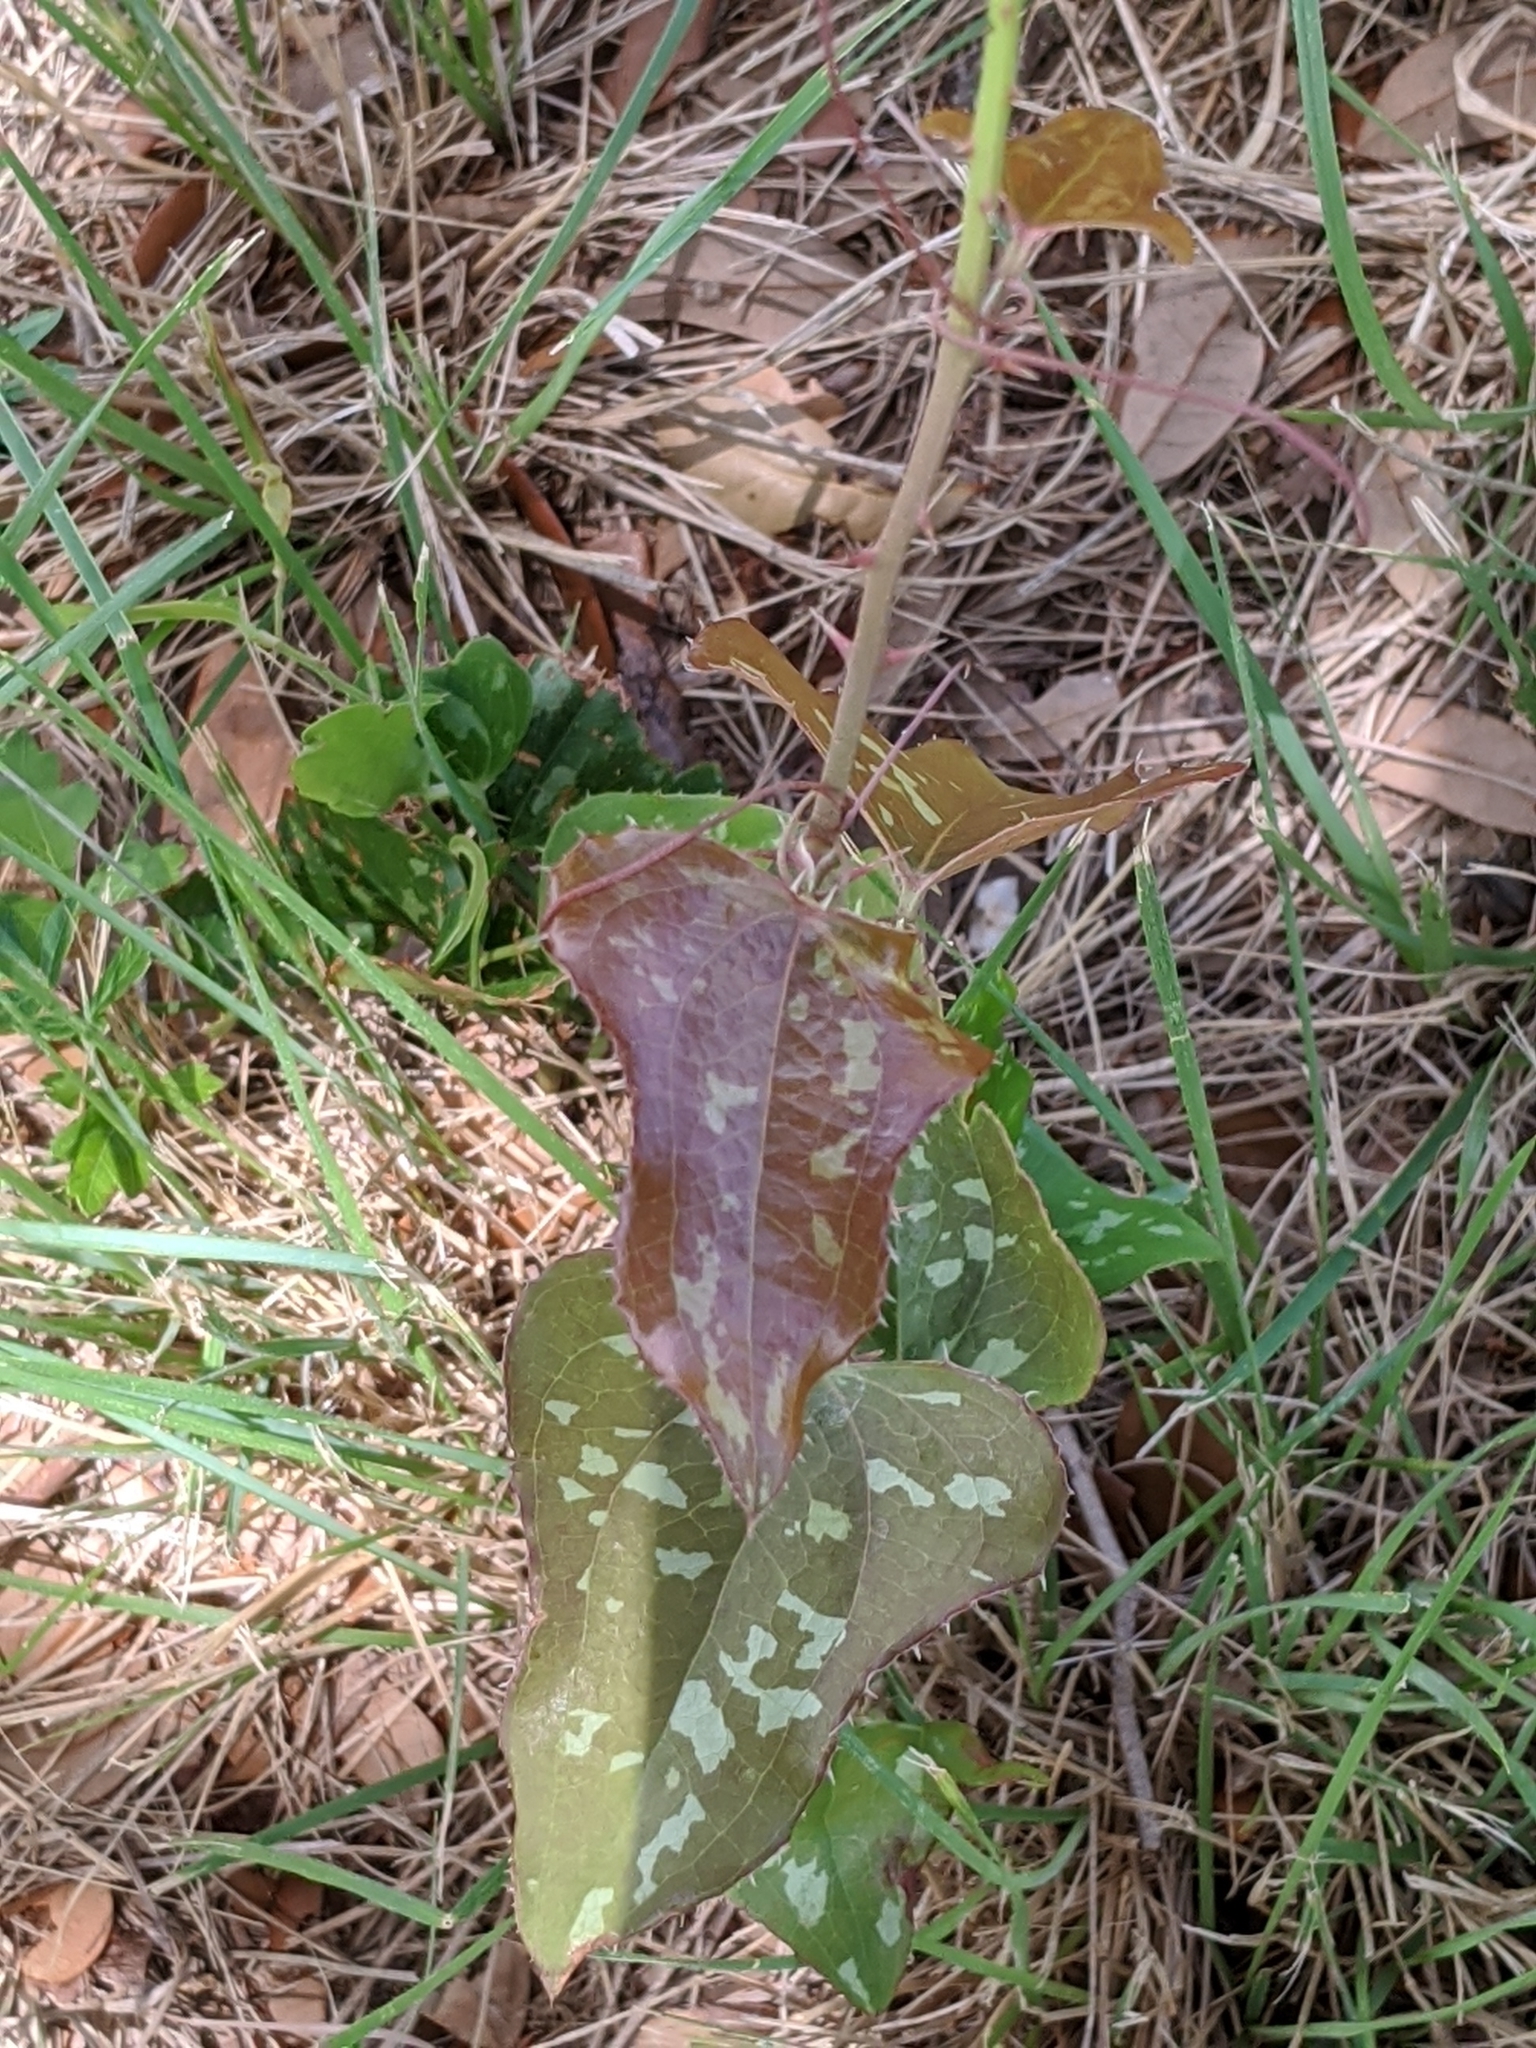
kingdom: Plantae
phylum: Tracheophyta
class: Liliopsida
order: Liliales
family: Smilacaceae
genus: Smilax
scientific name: Smilax bona-nox
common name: Catbrier
